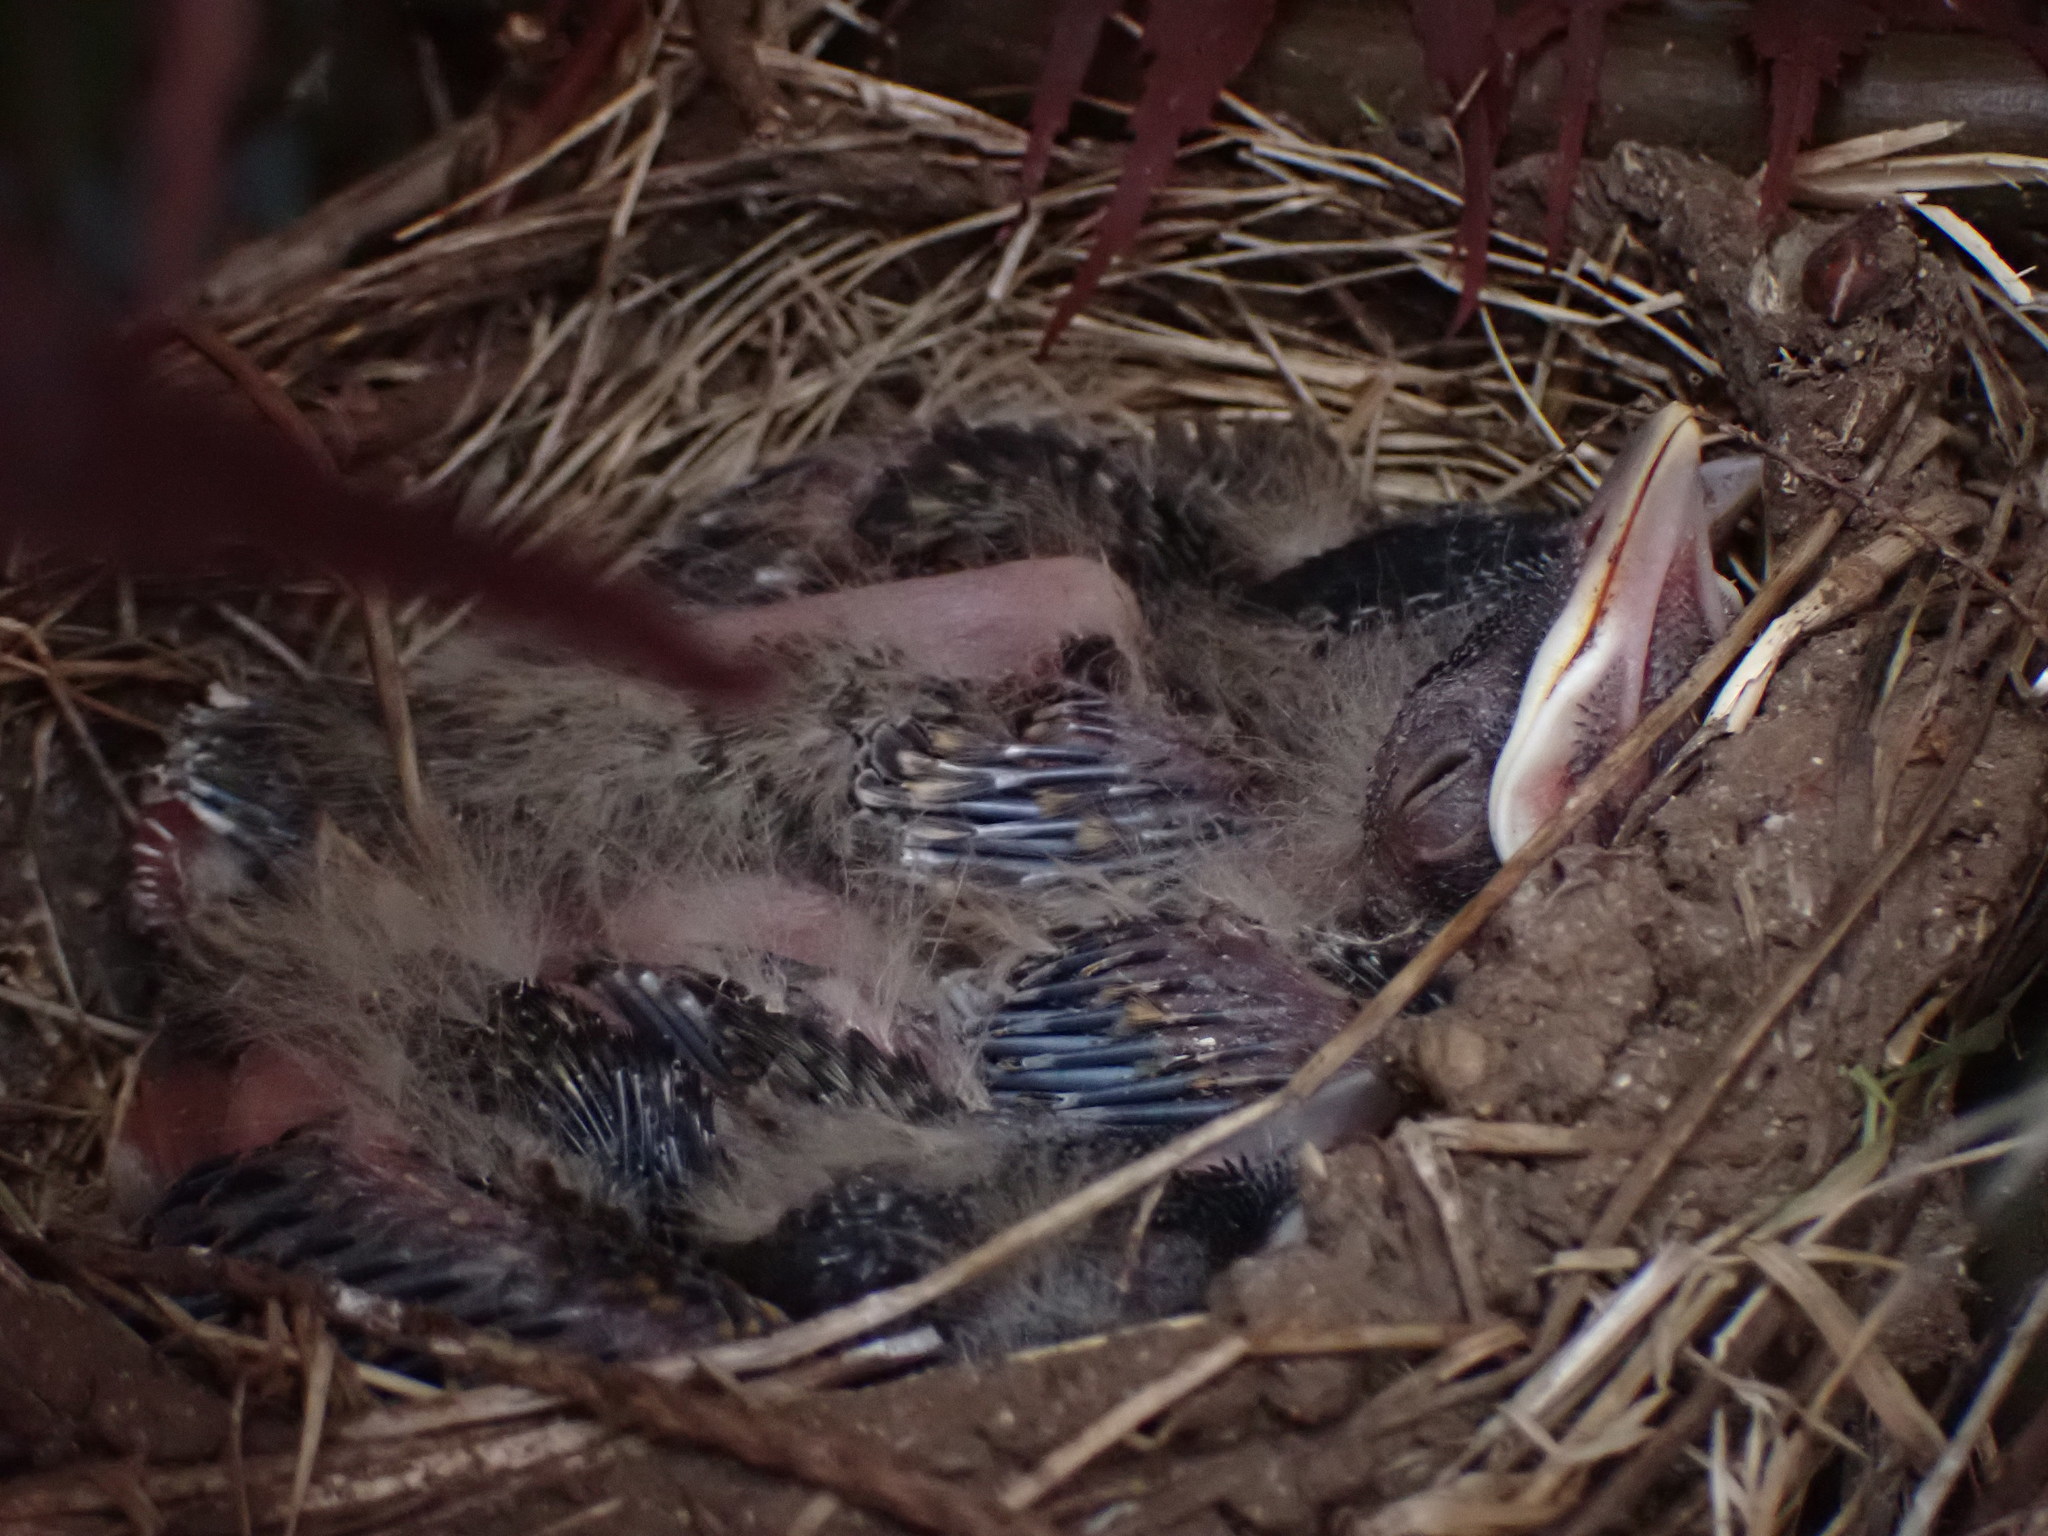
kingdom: Animalia
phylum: Chordata
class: Aves
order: Passeriformes
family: Turdidae
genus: Turdus
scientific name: Turdus migratorius
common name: American robin
